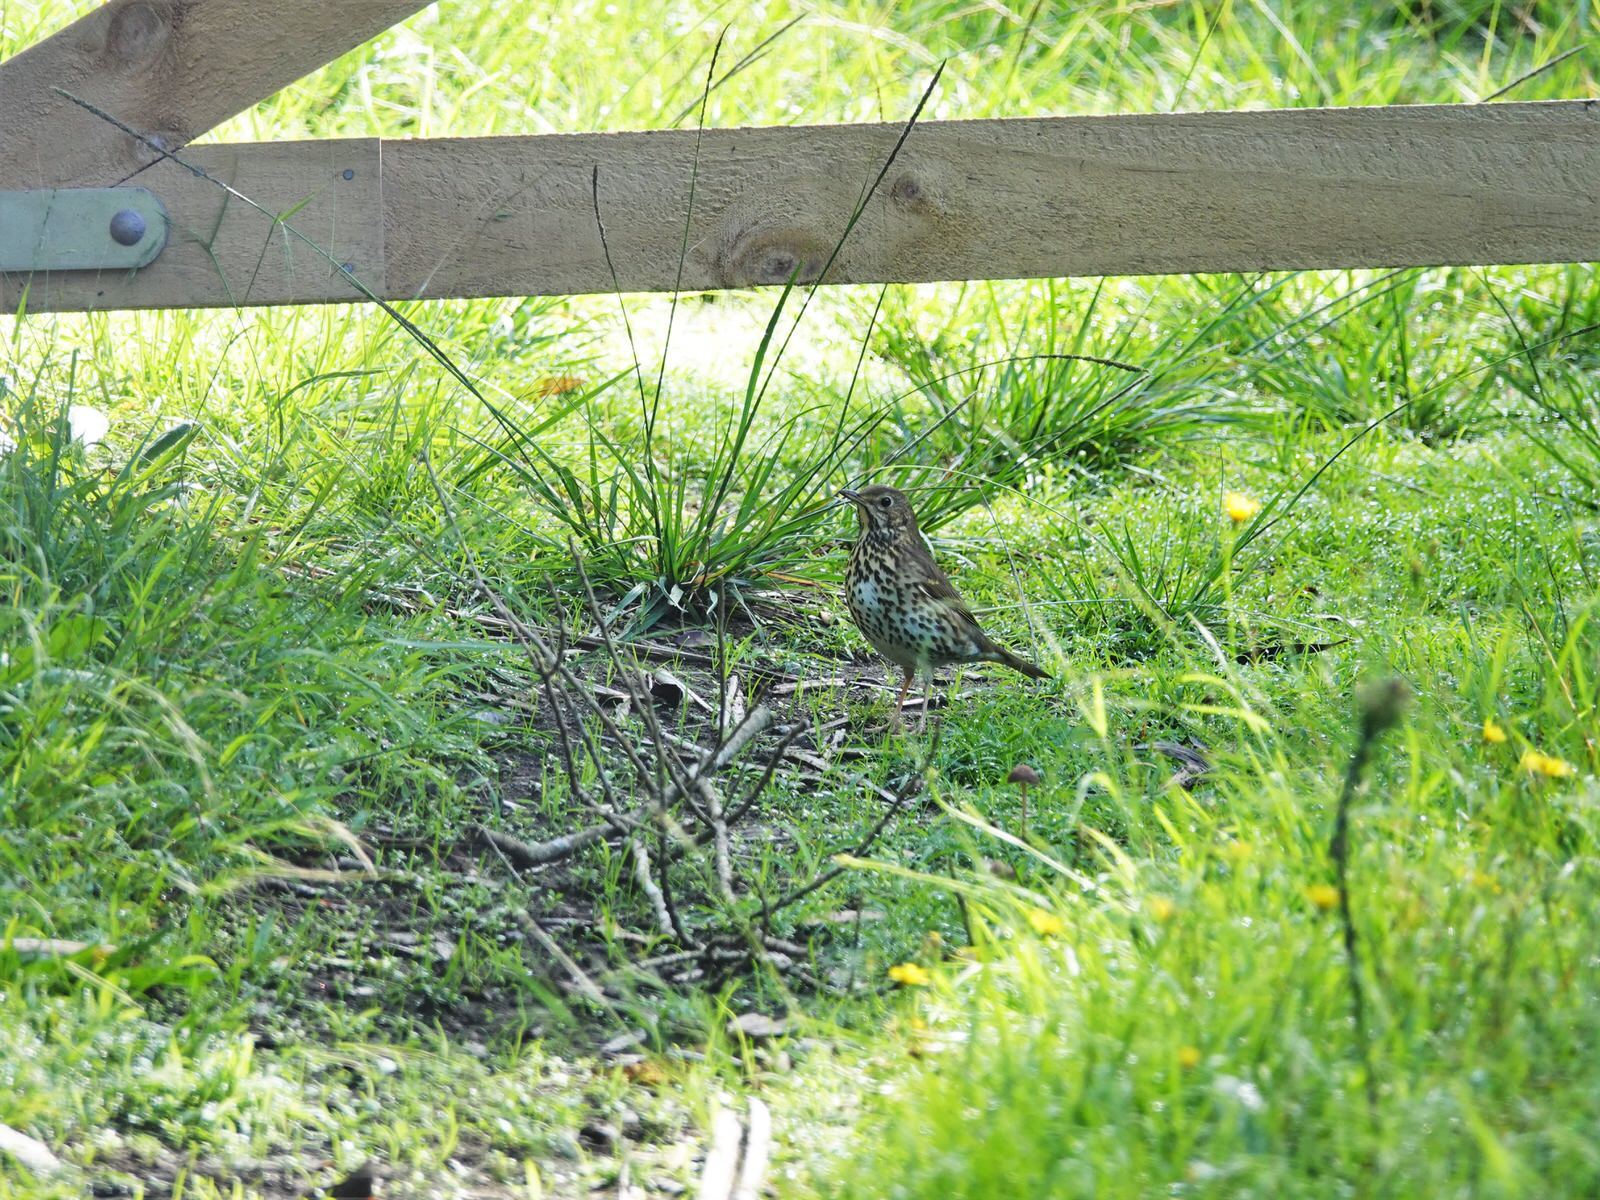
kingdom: Animalia
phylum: Chordata
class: Aves
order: Passeriformes
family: Turdidae
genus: Turdus
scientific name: Turdus philomelos
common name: Song thrush
